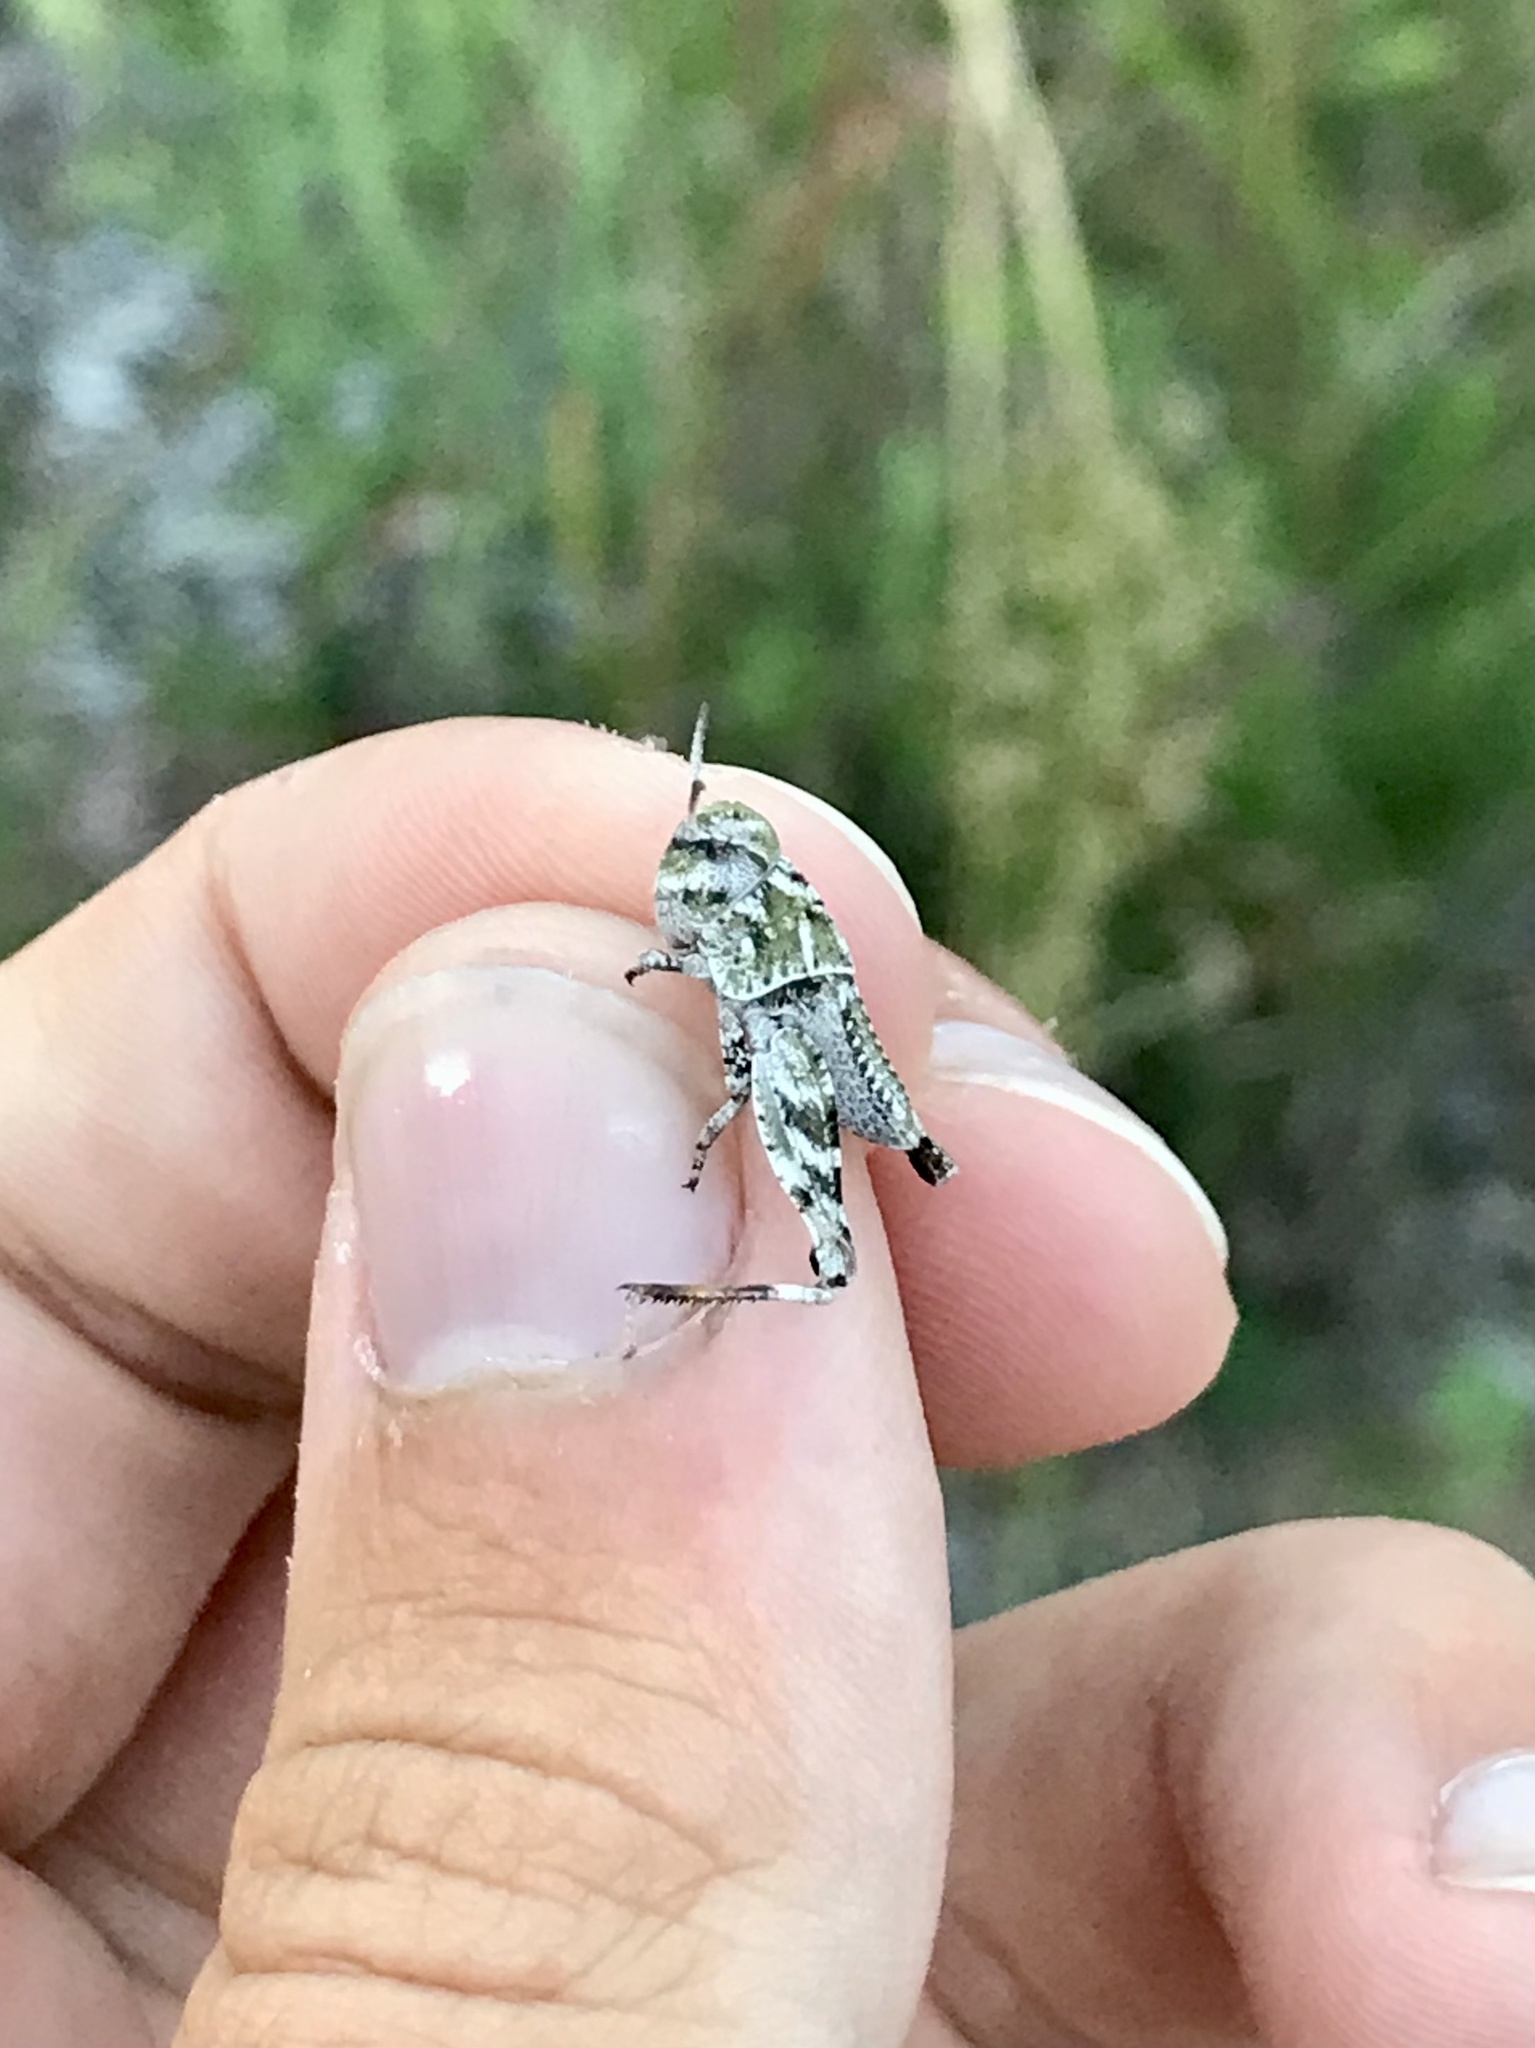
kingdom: Animalia
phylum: Arthropoda
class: Insecta
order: Orthoptera
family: Acrididae
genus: Pardalophora
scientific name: Pardalophora apiculata
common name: Coral-winged locust
